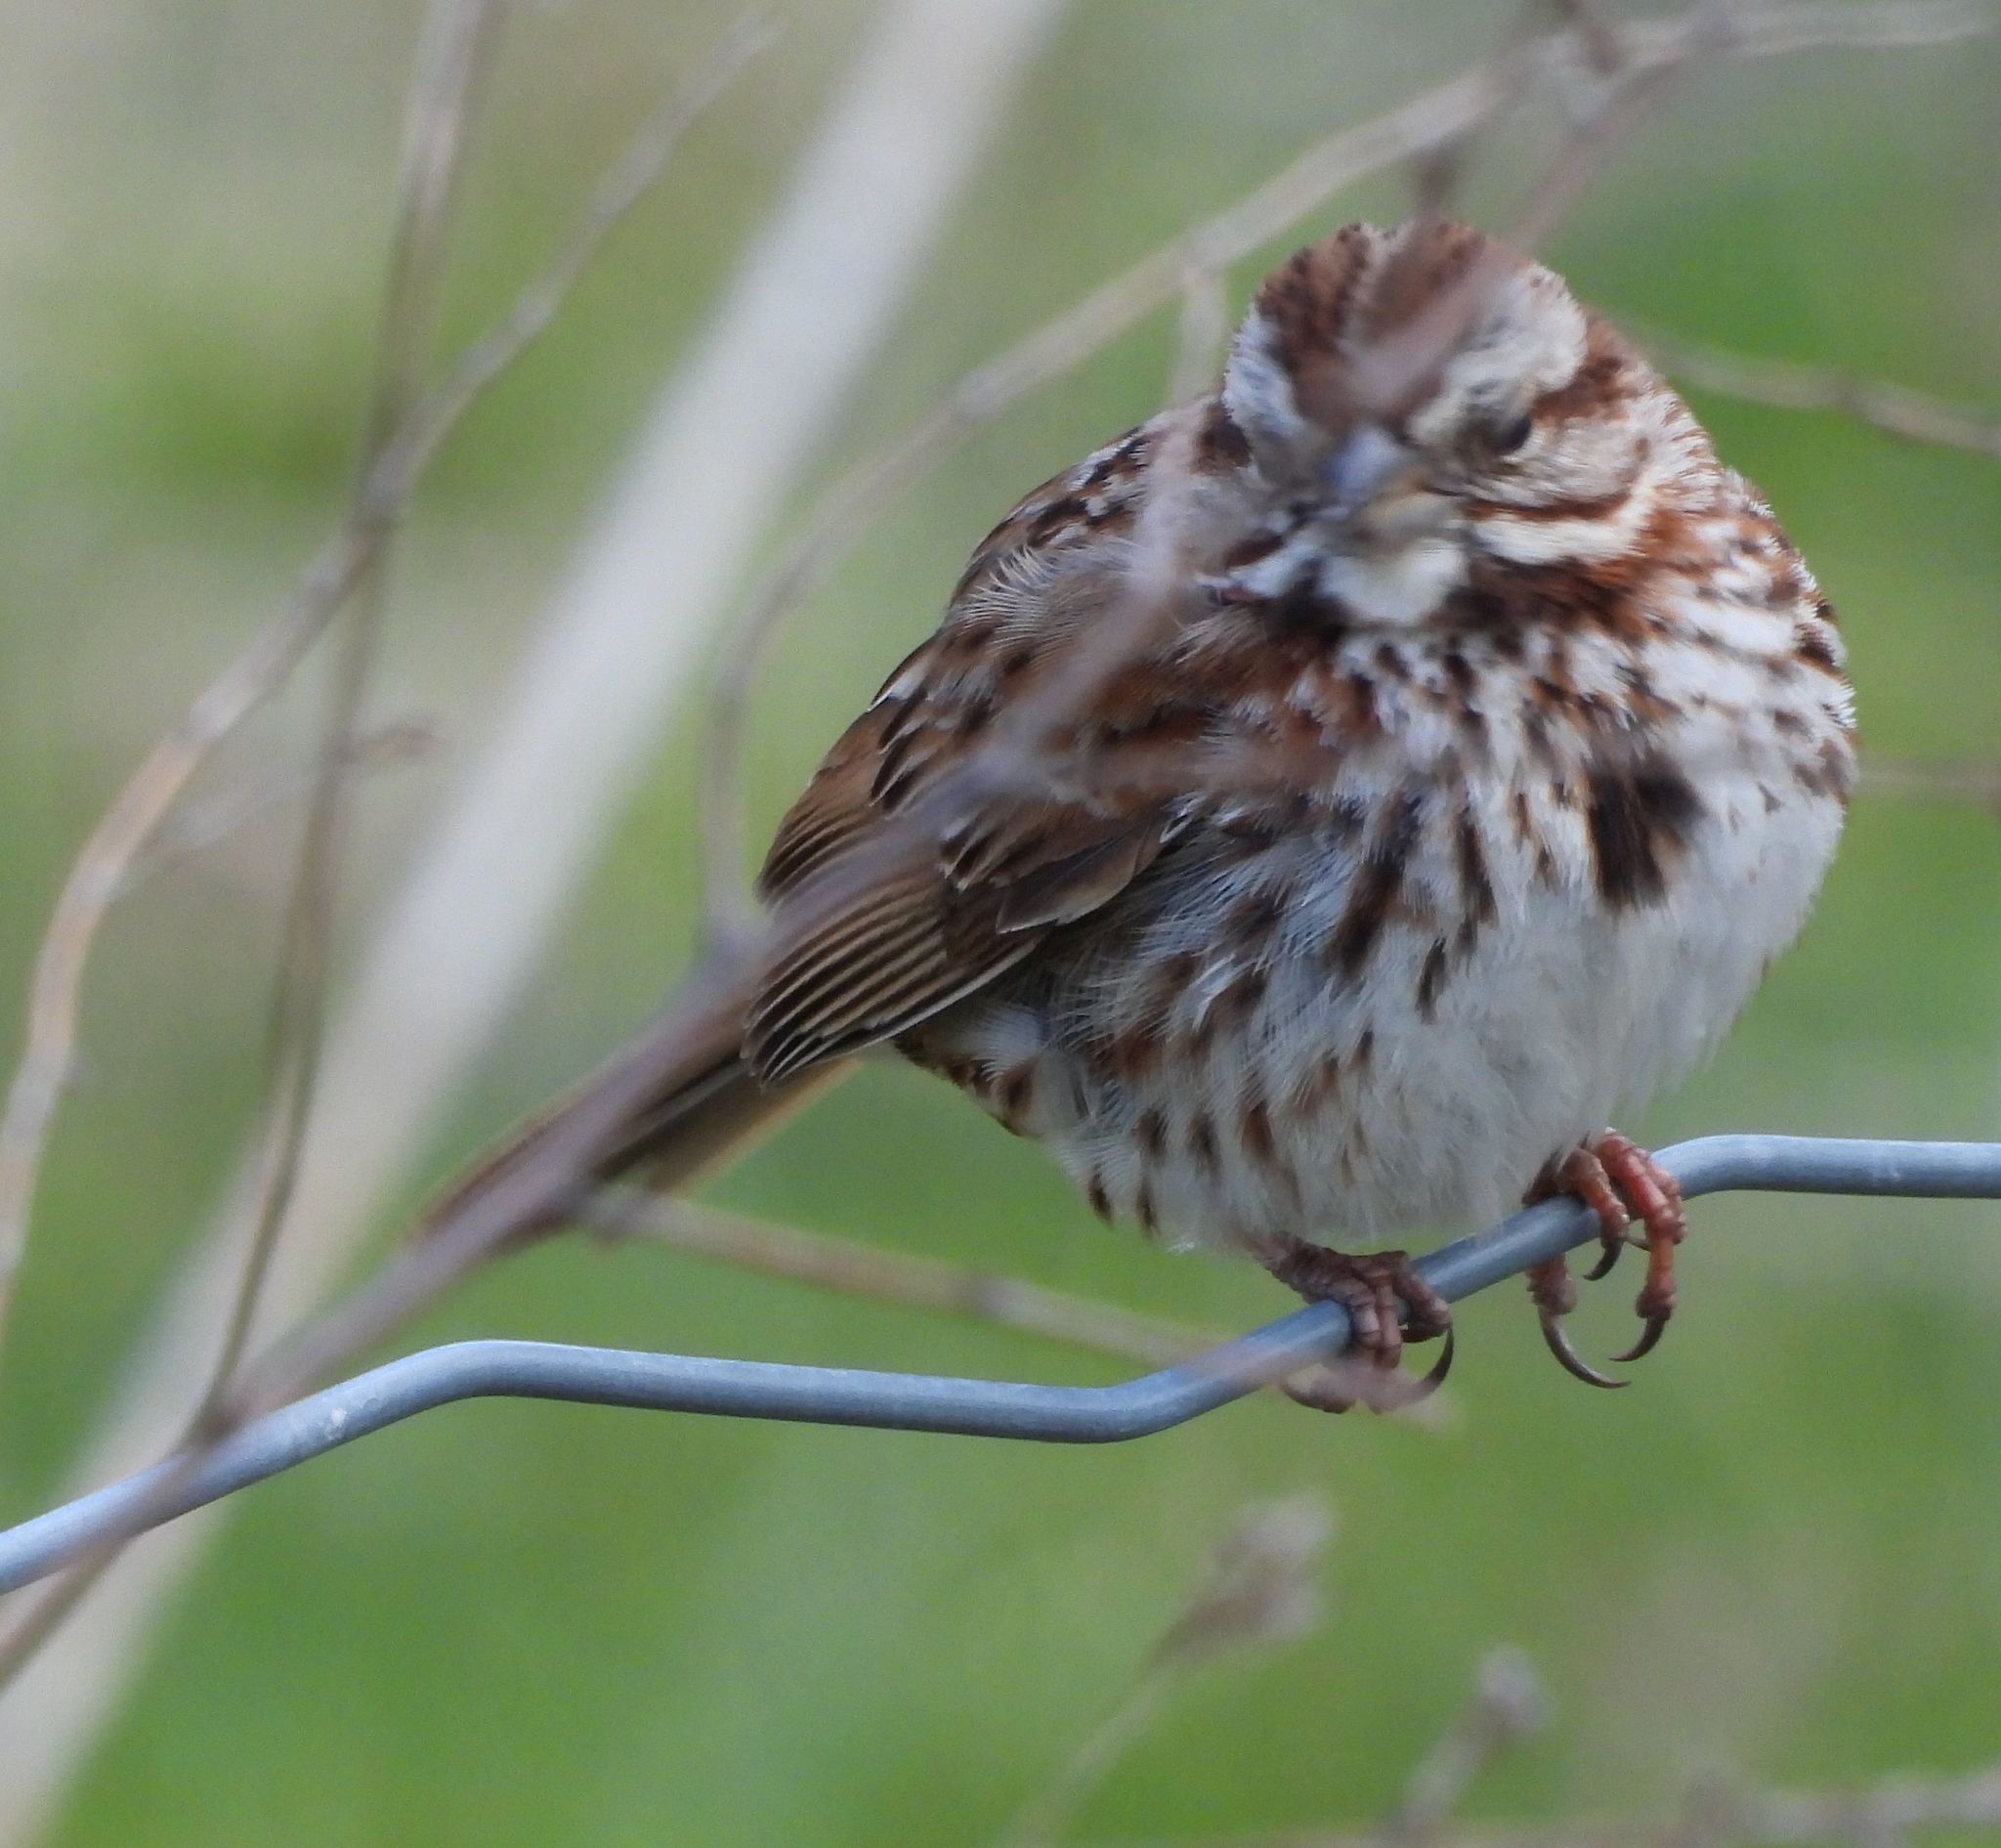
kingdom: Animalia
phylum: Chordata
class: Aves
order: Passeriformes
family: Passerellidae
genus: Melospiza
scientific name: Melospiza melodia
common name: Song sparrow
